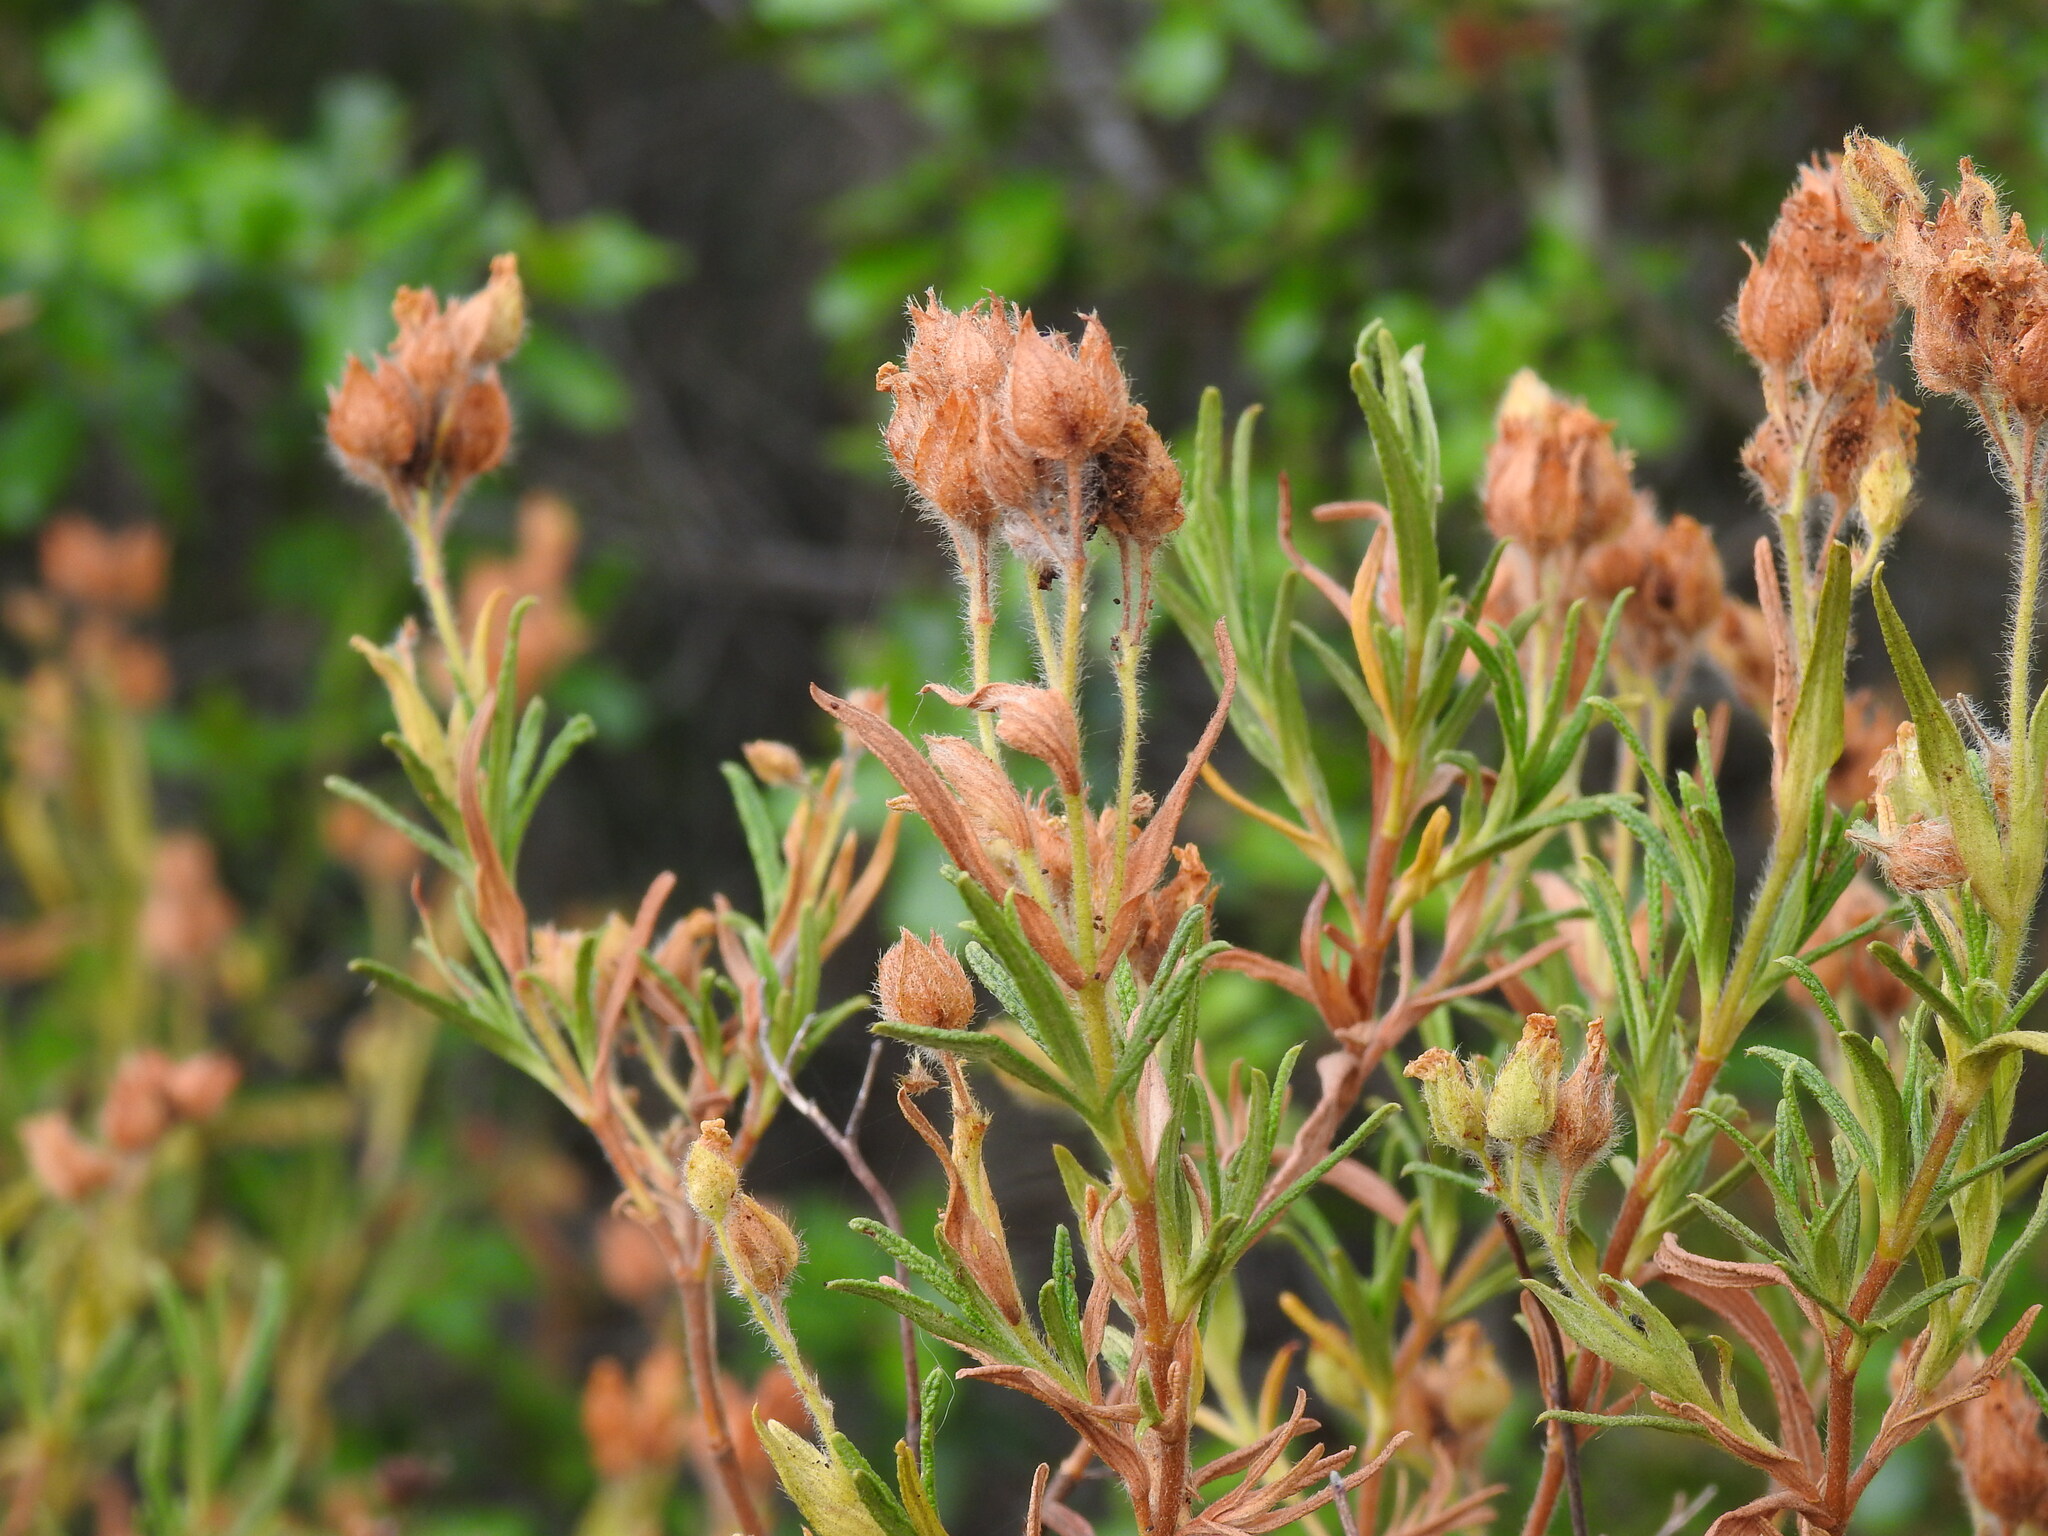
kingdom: Plantae
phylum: Tracheophyta
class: Magnoliopsida
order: Malvales
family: Cistaceae
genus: Cistus
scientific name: Cistus monspeliensis
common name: Montpelier cistus
